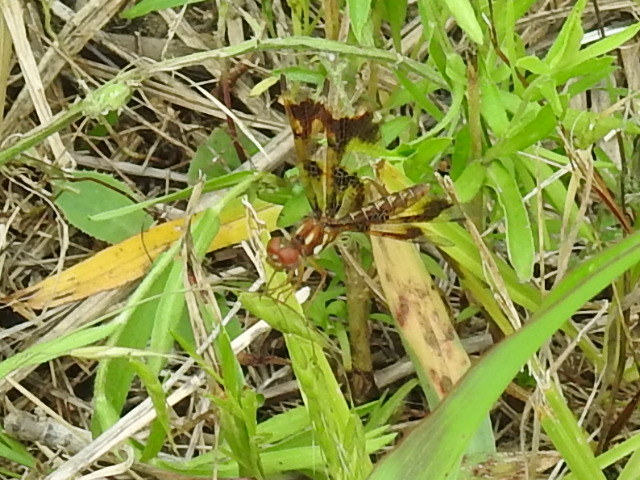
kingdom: Animalia
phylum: Arthropoda
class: Insecta
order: Odonata
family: Libellulidae
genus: Perithemis
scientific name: Perithemis tenera
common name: Eastern amberwing
